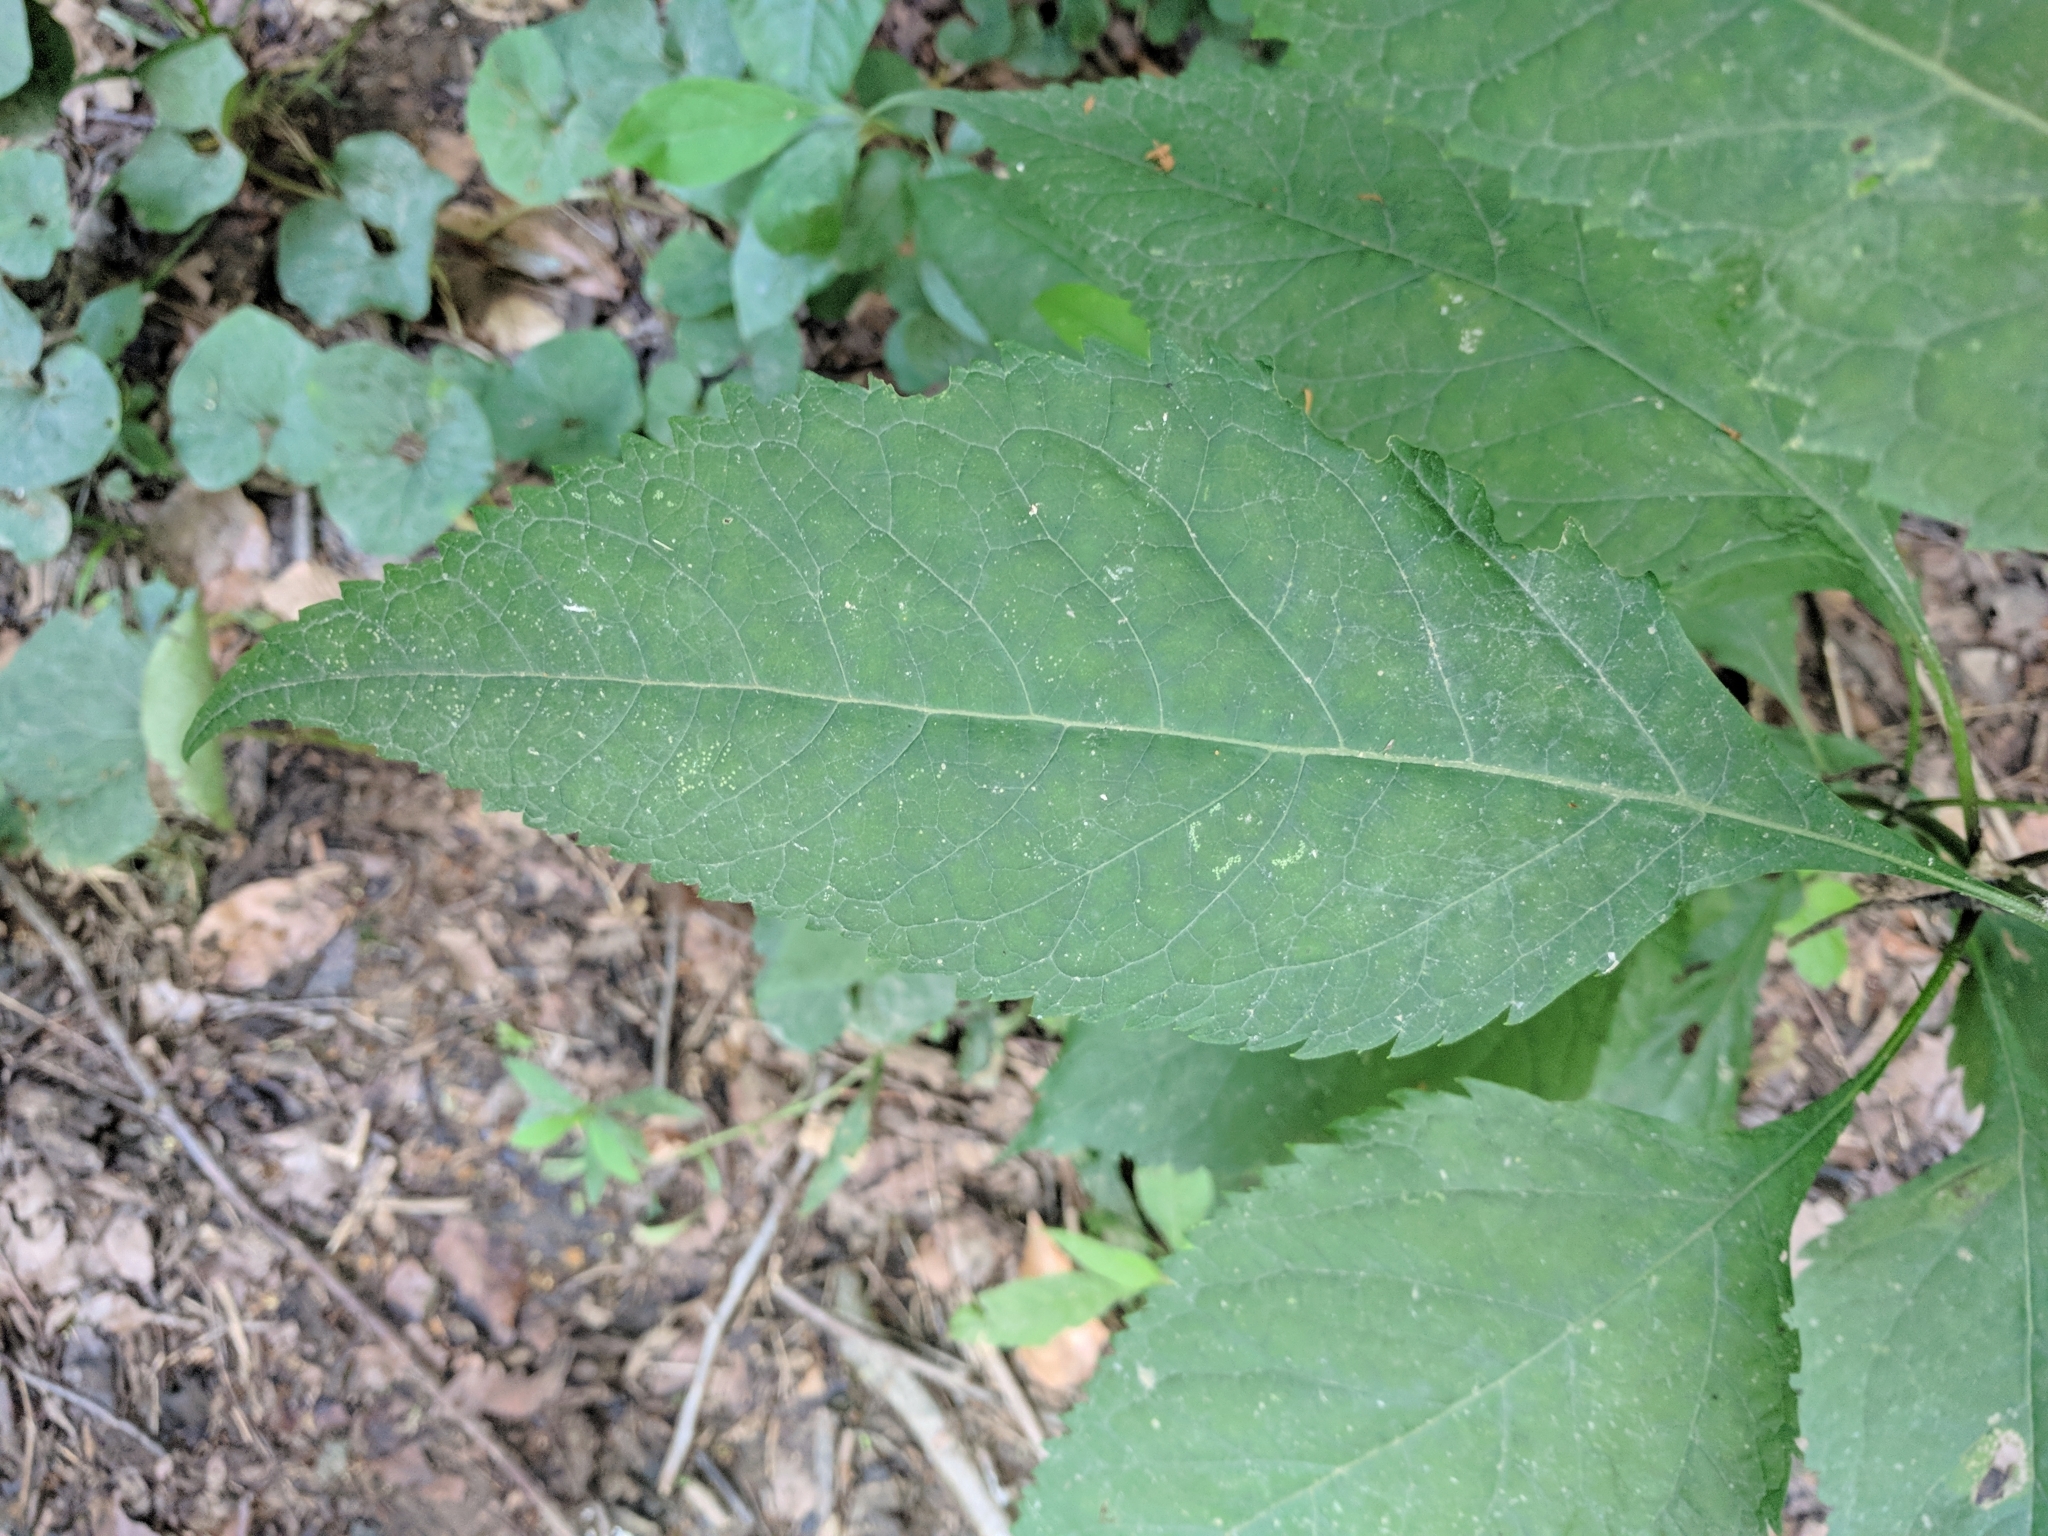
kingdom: Plantae
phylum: Tracheophyta
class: Magnoliopsida
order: Asterales
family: Asteraceae
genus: Eutrochium
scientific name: Eutrochium purpureum
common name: Gravelroot
